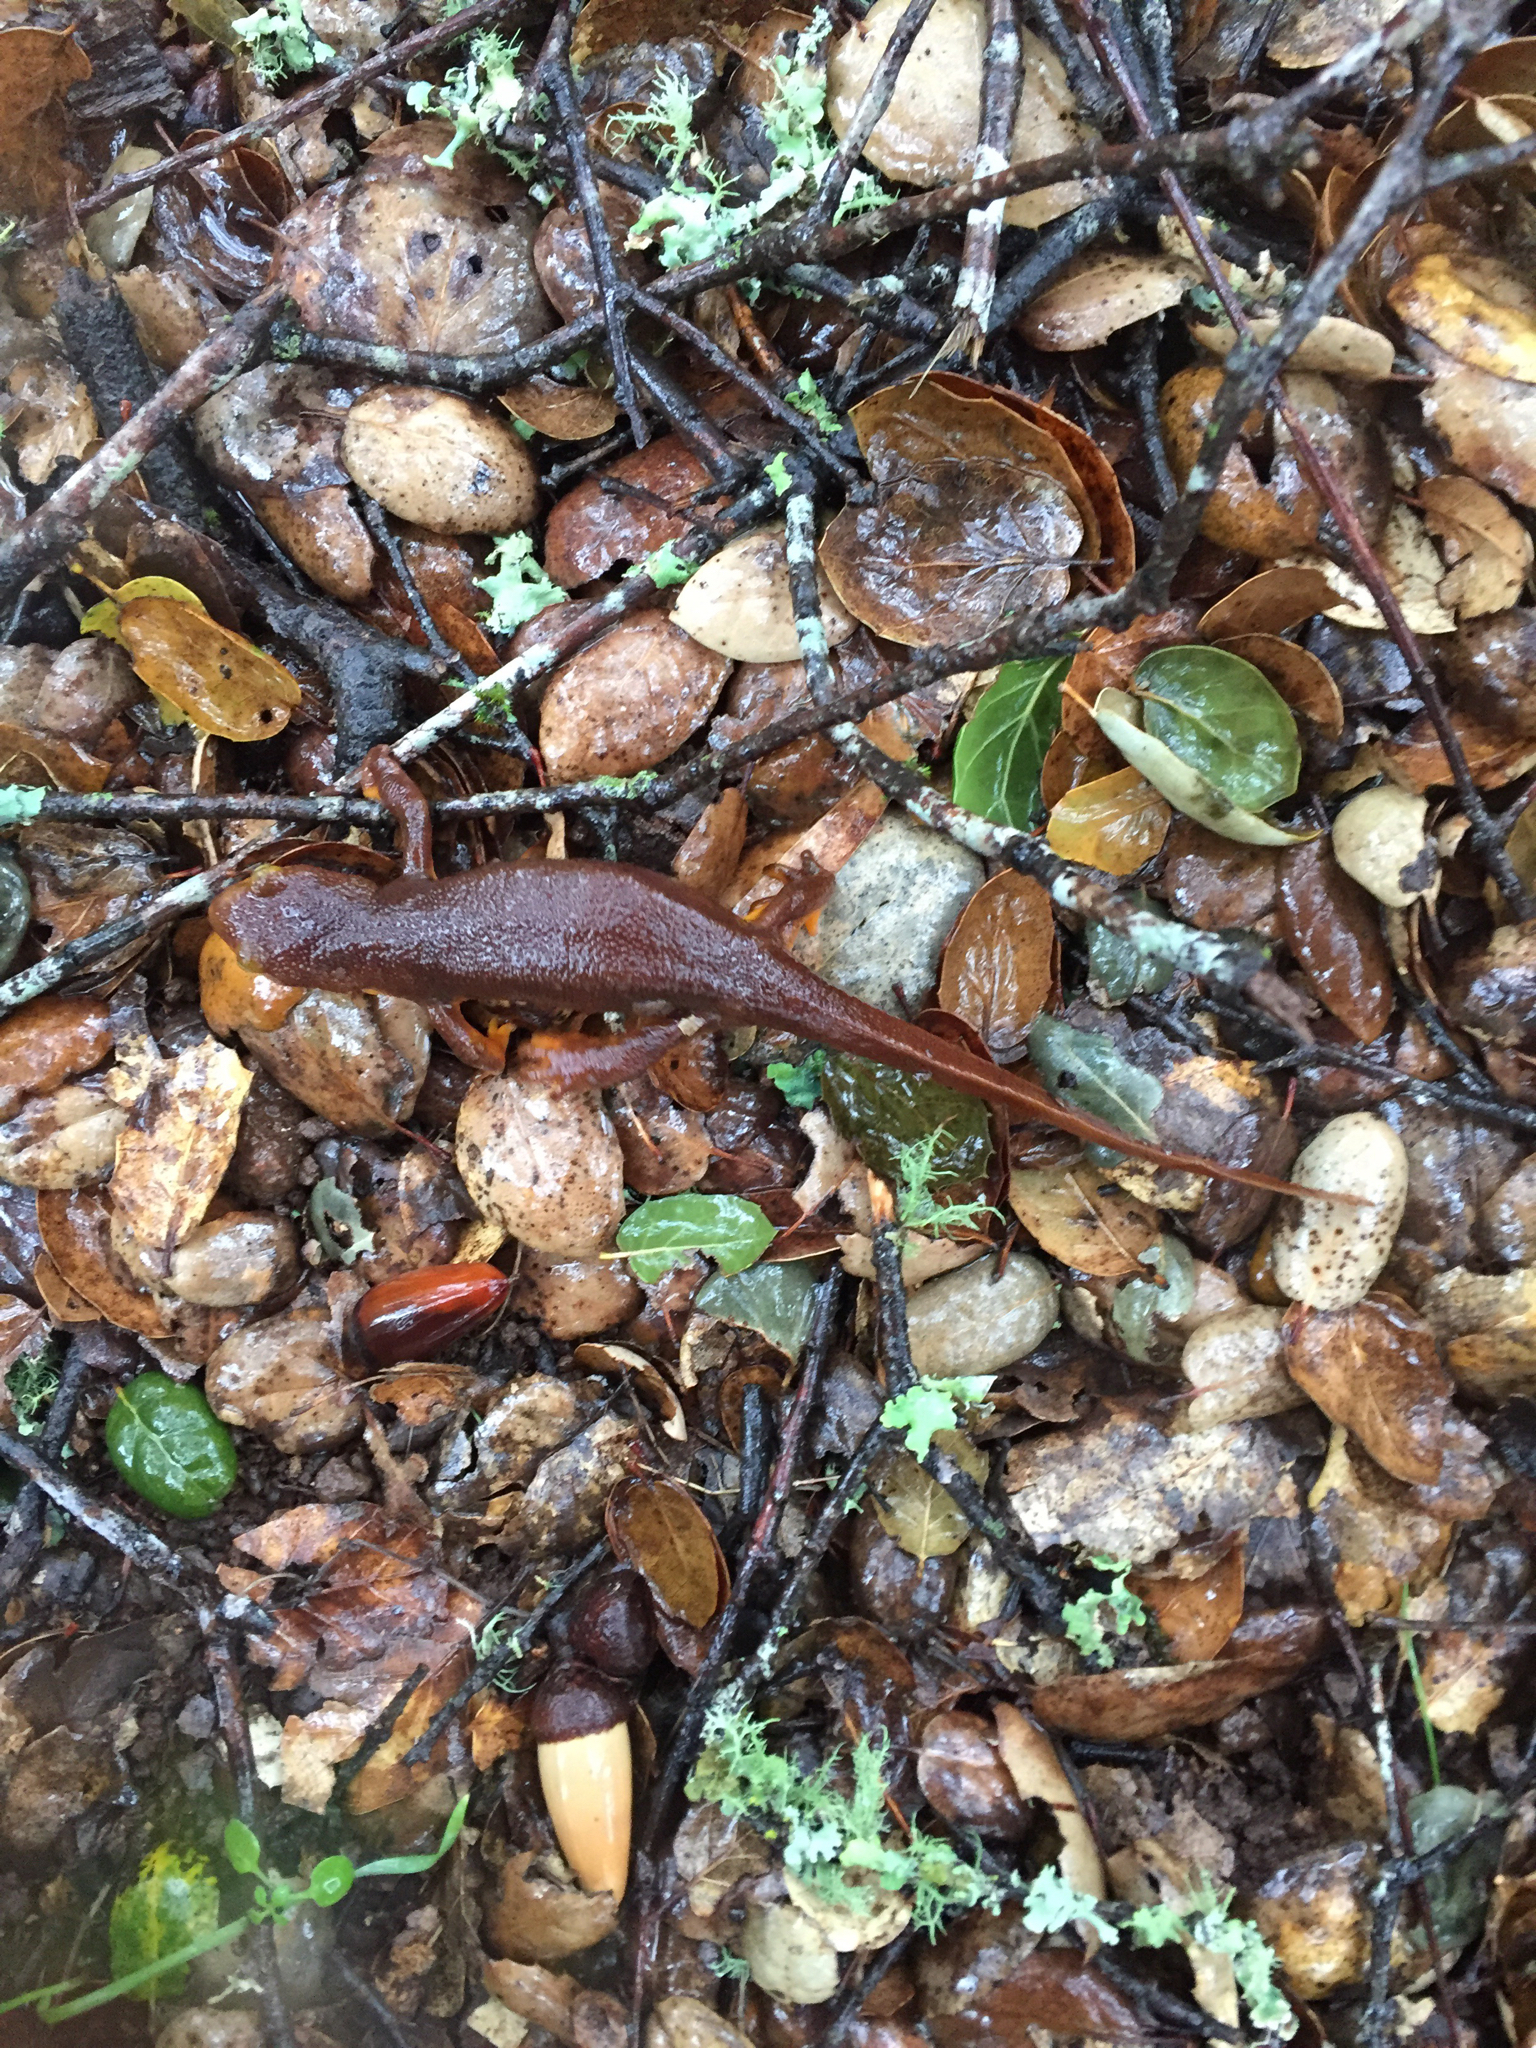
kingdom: Animalia
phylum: Chordata
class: Amphibia
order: Caudata
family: Salamandridae
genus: Taricha
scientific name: Taricha torosa
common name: California newt
